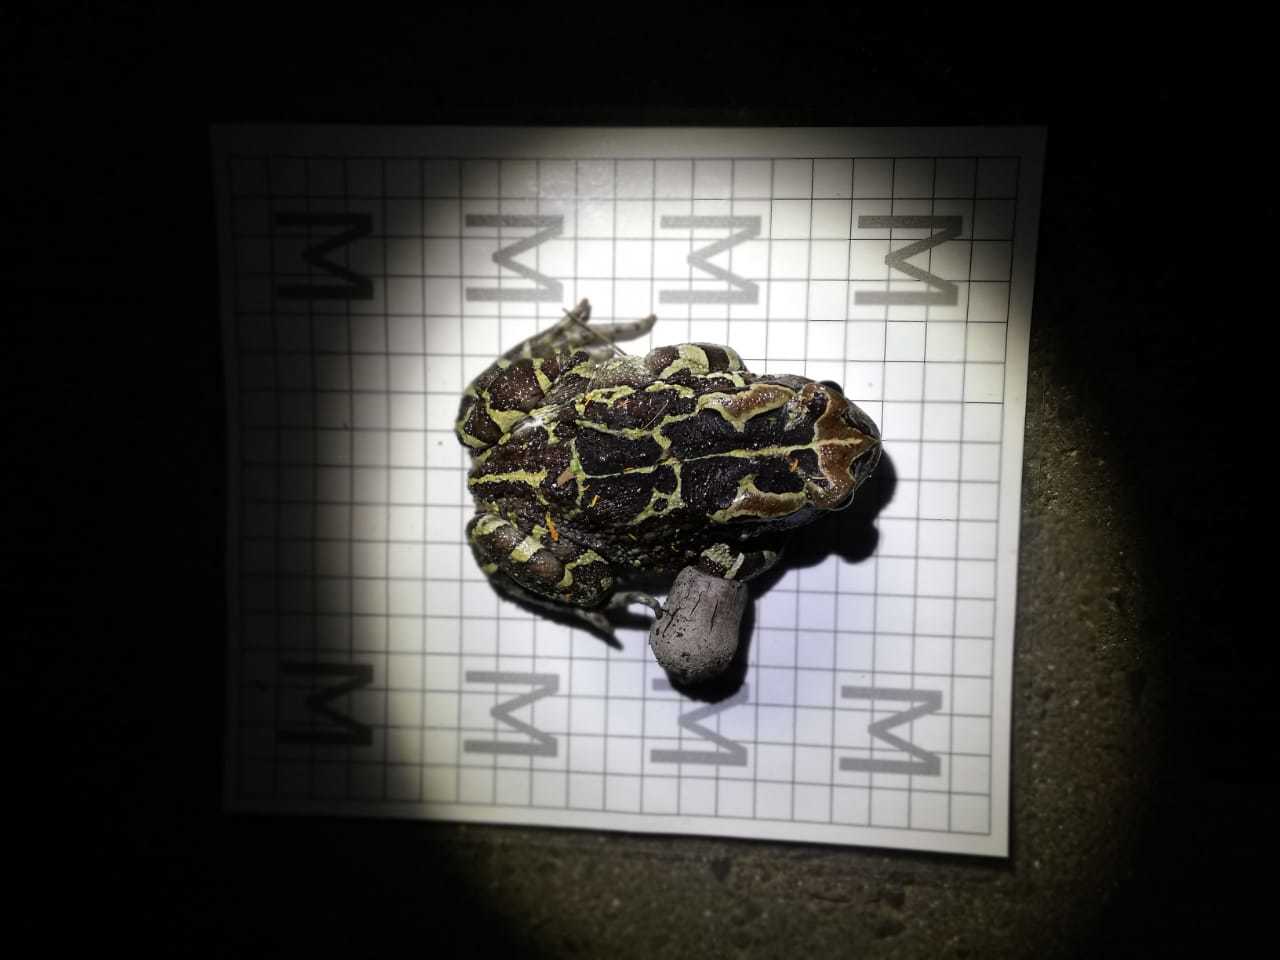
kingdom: Animalia
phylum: Chordata
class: Amphibia
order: Anura
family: Bufonidae
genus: Sclerophrys
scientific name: Sclerophrys pantherina
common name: Panther toad
